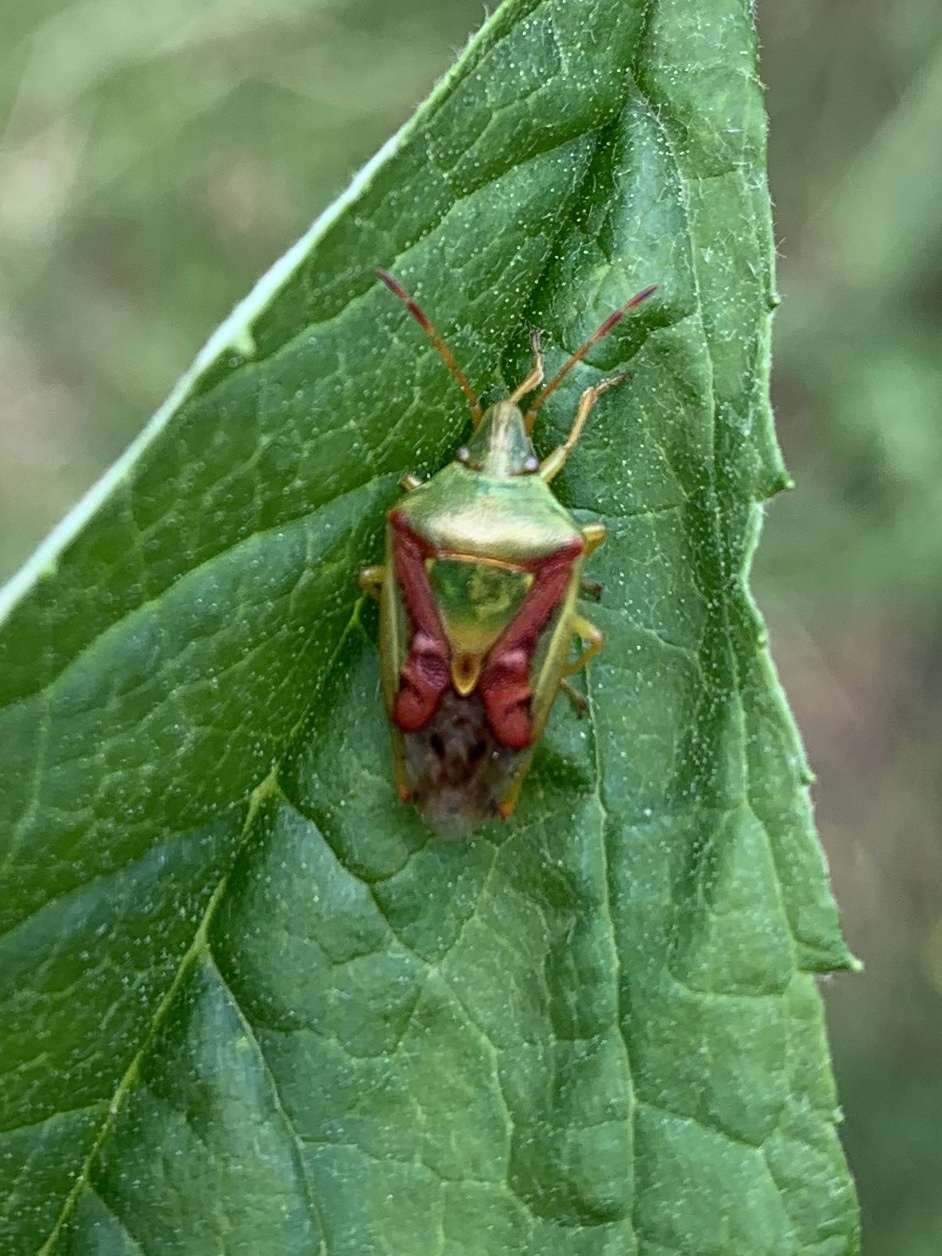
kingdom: Animalia
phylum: Arthropoda
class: Insecta
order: Hemiptera
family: Acanthosomatidae
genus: Cyphostethus
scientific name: Cyphostethus tristriatus
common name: Juniper shieldbug
